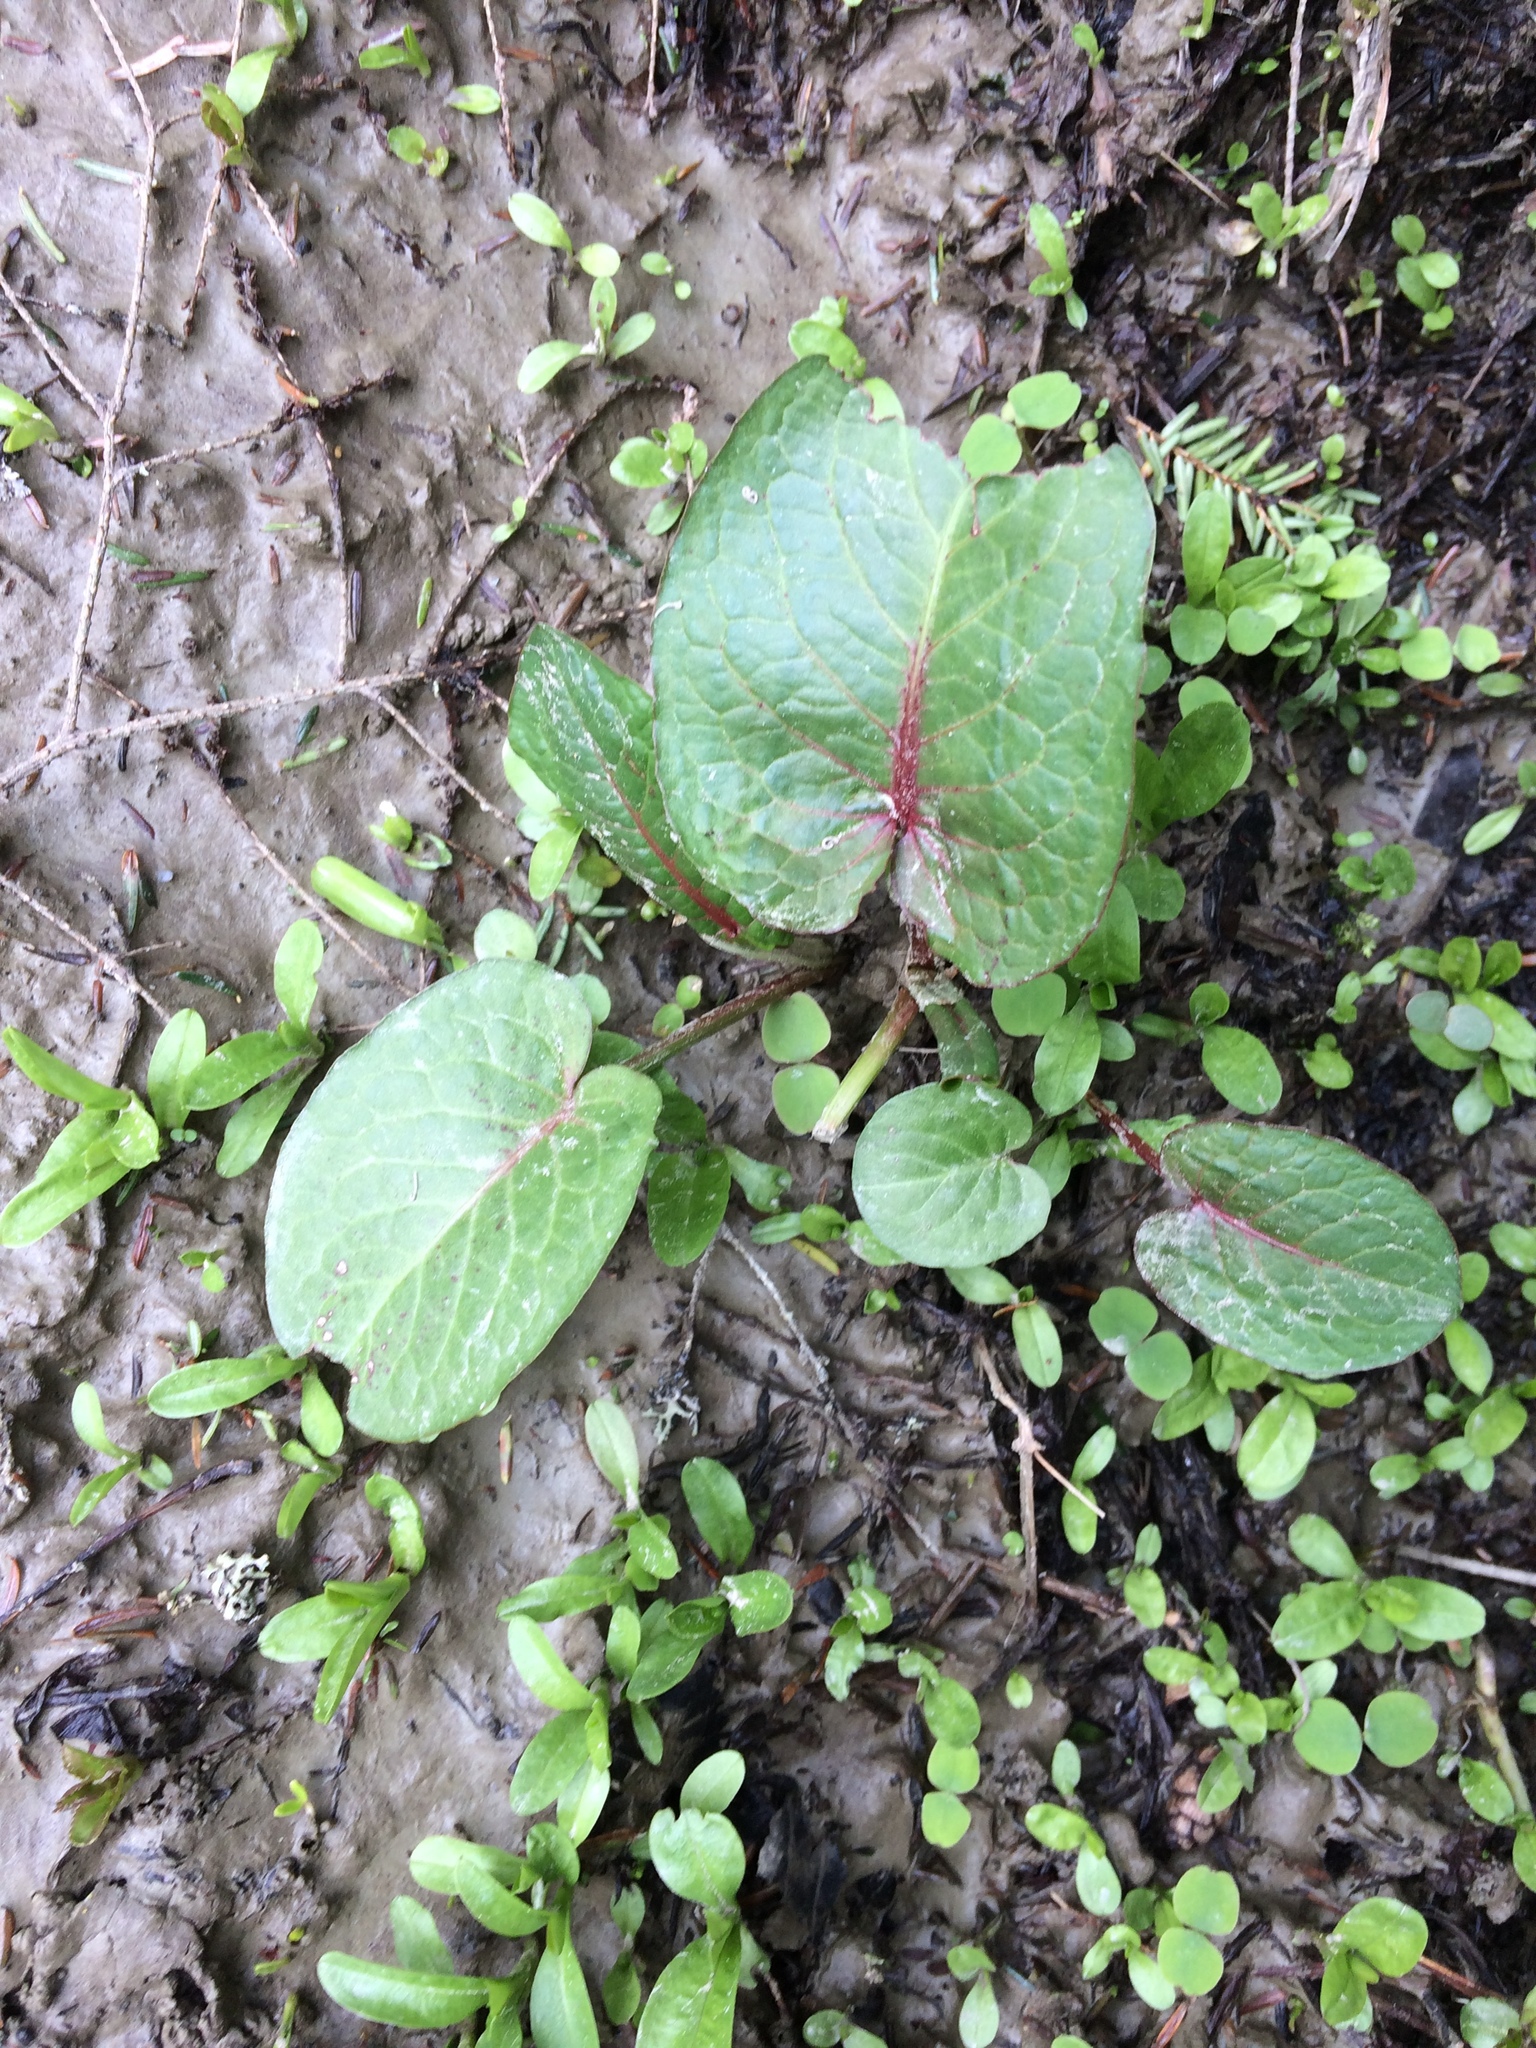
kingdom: Plantae
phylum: Tracheophyta
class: Magnoliopsida
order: Caryophyllales
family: Polygonaceae
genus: Rumex
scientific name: Rumex obtusifolius
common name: Bitter dock
